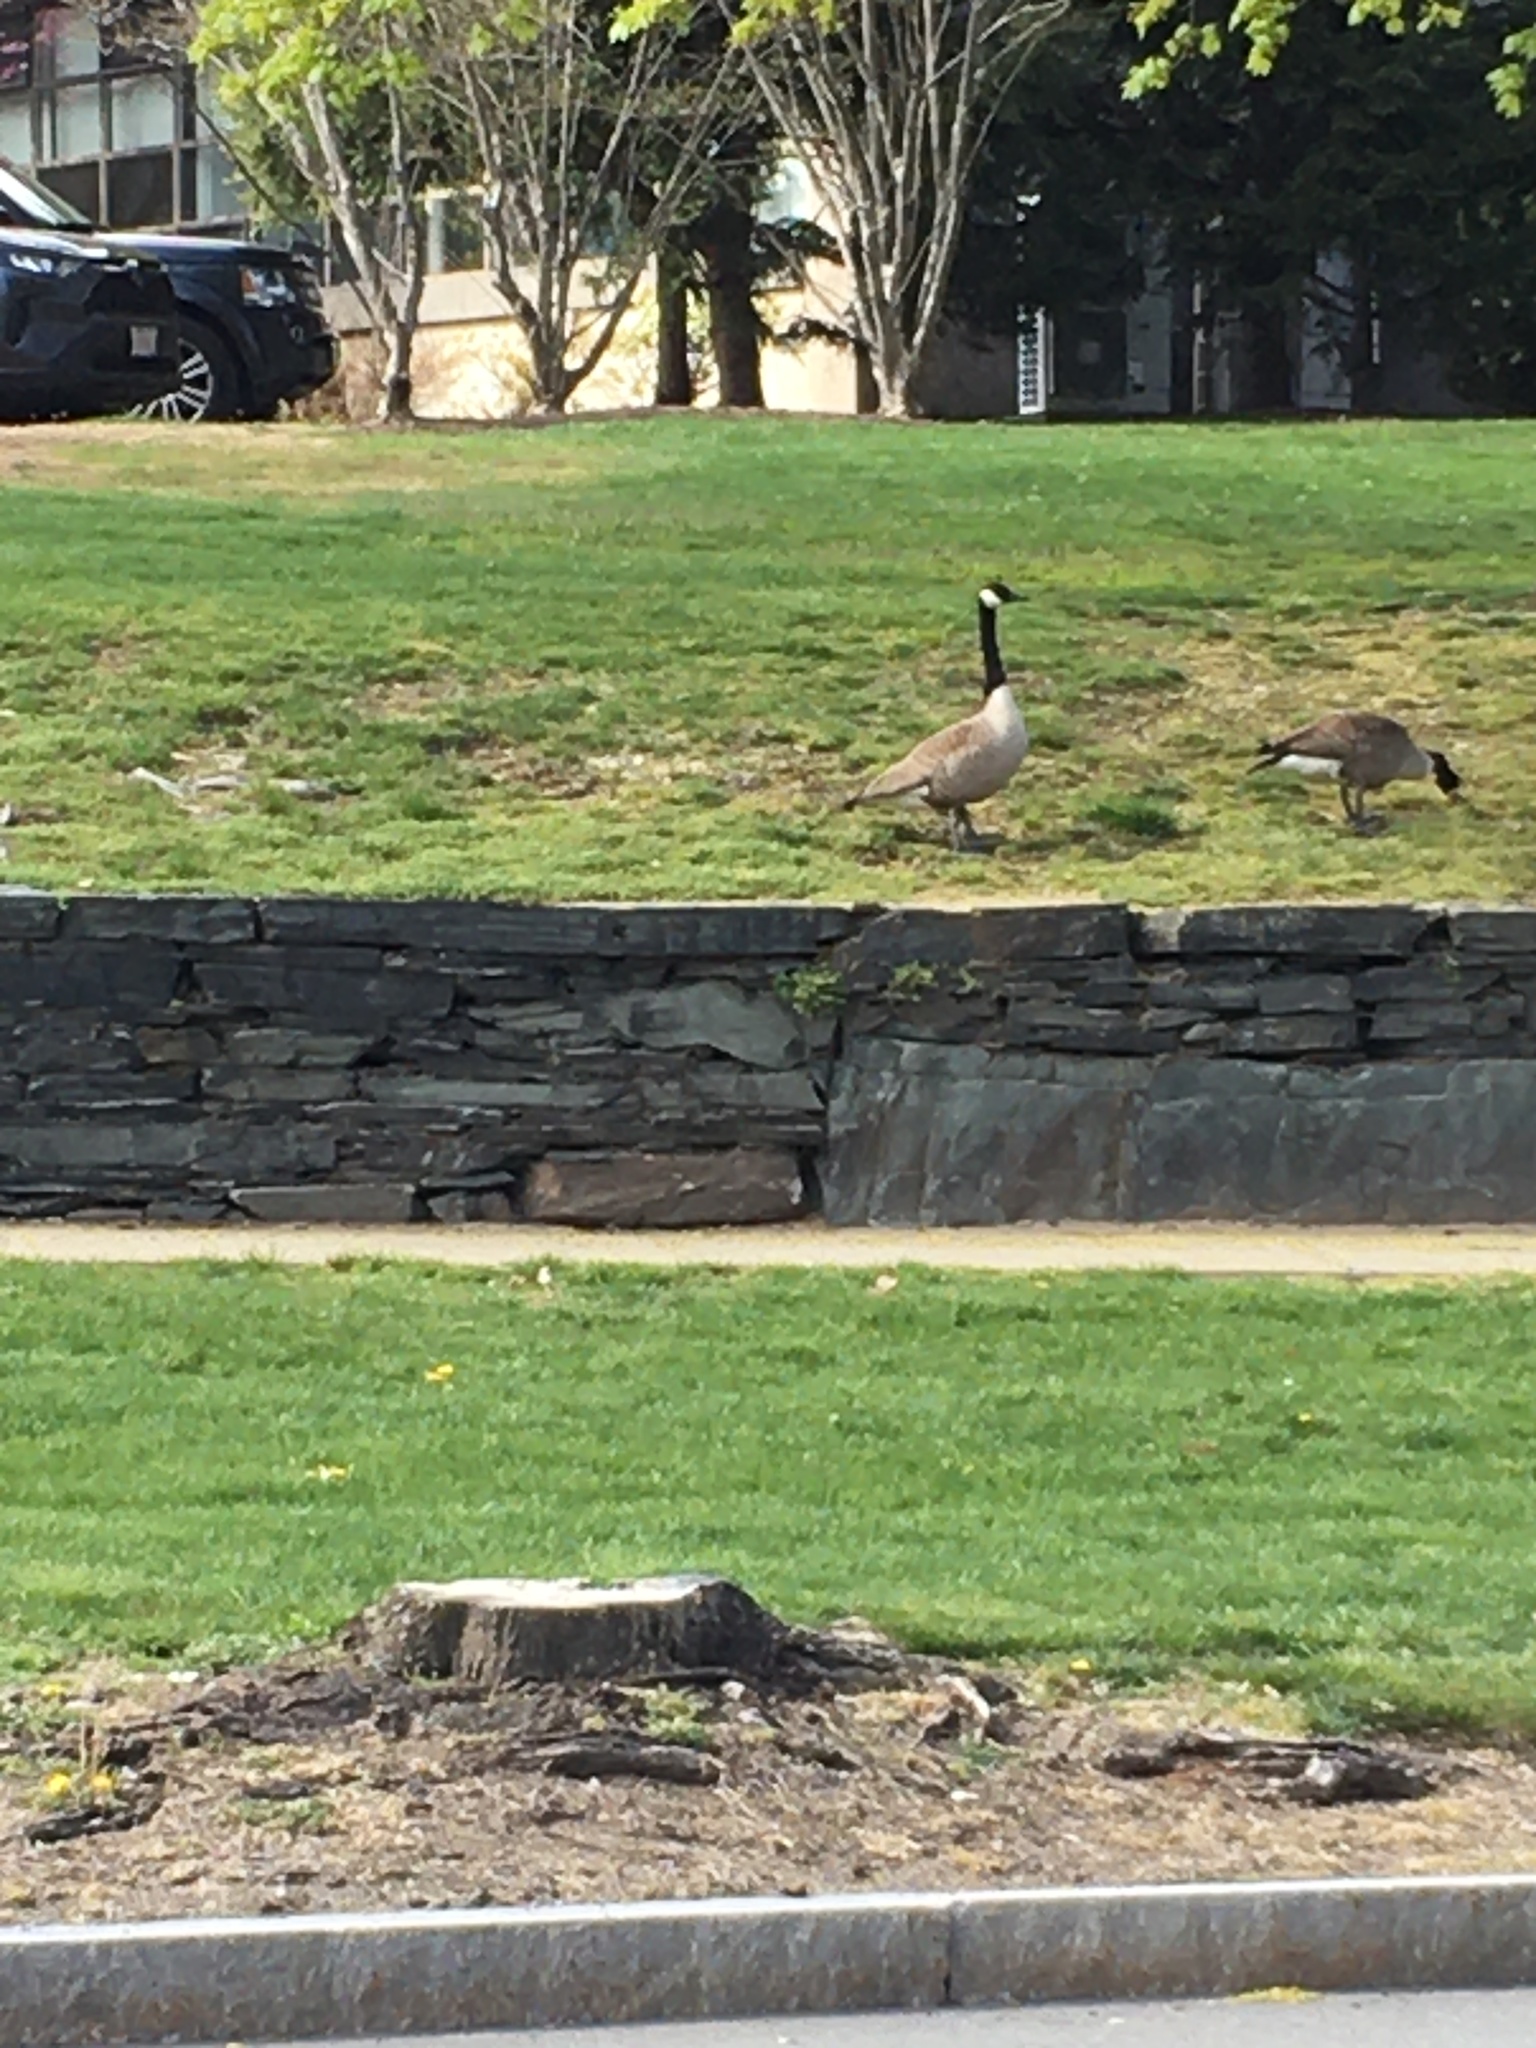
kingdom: Animalia
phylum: Chordata
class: Aves
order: Anseriformes
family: Anatidae
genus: Branta
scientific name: Branta canadensis
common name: Canada goose
